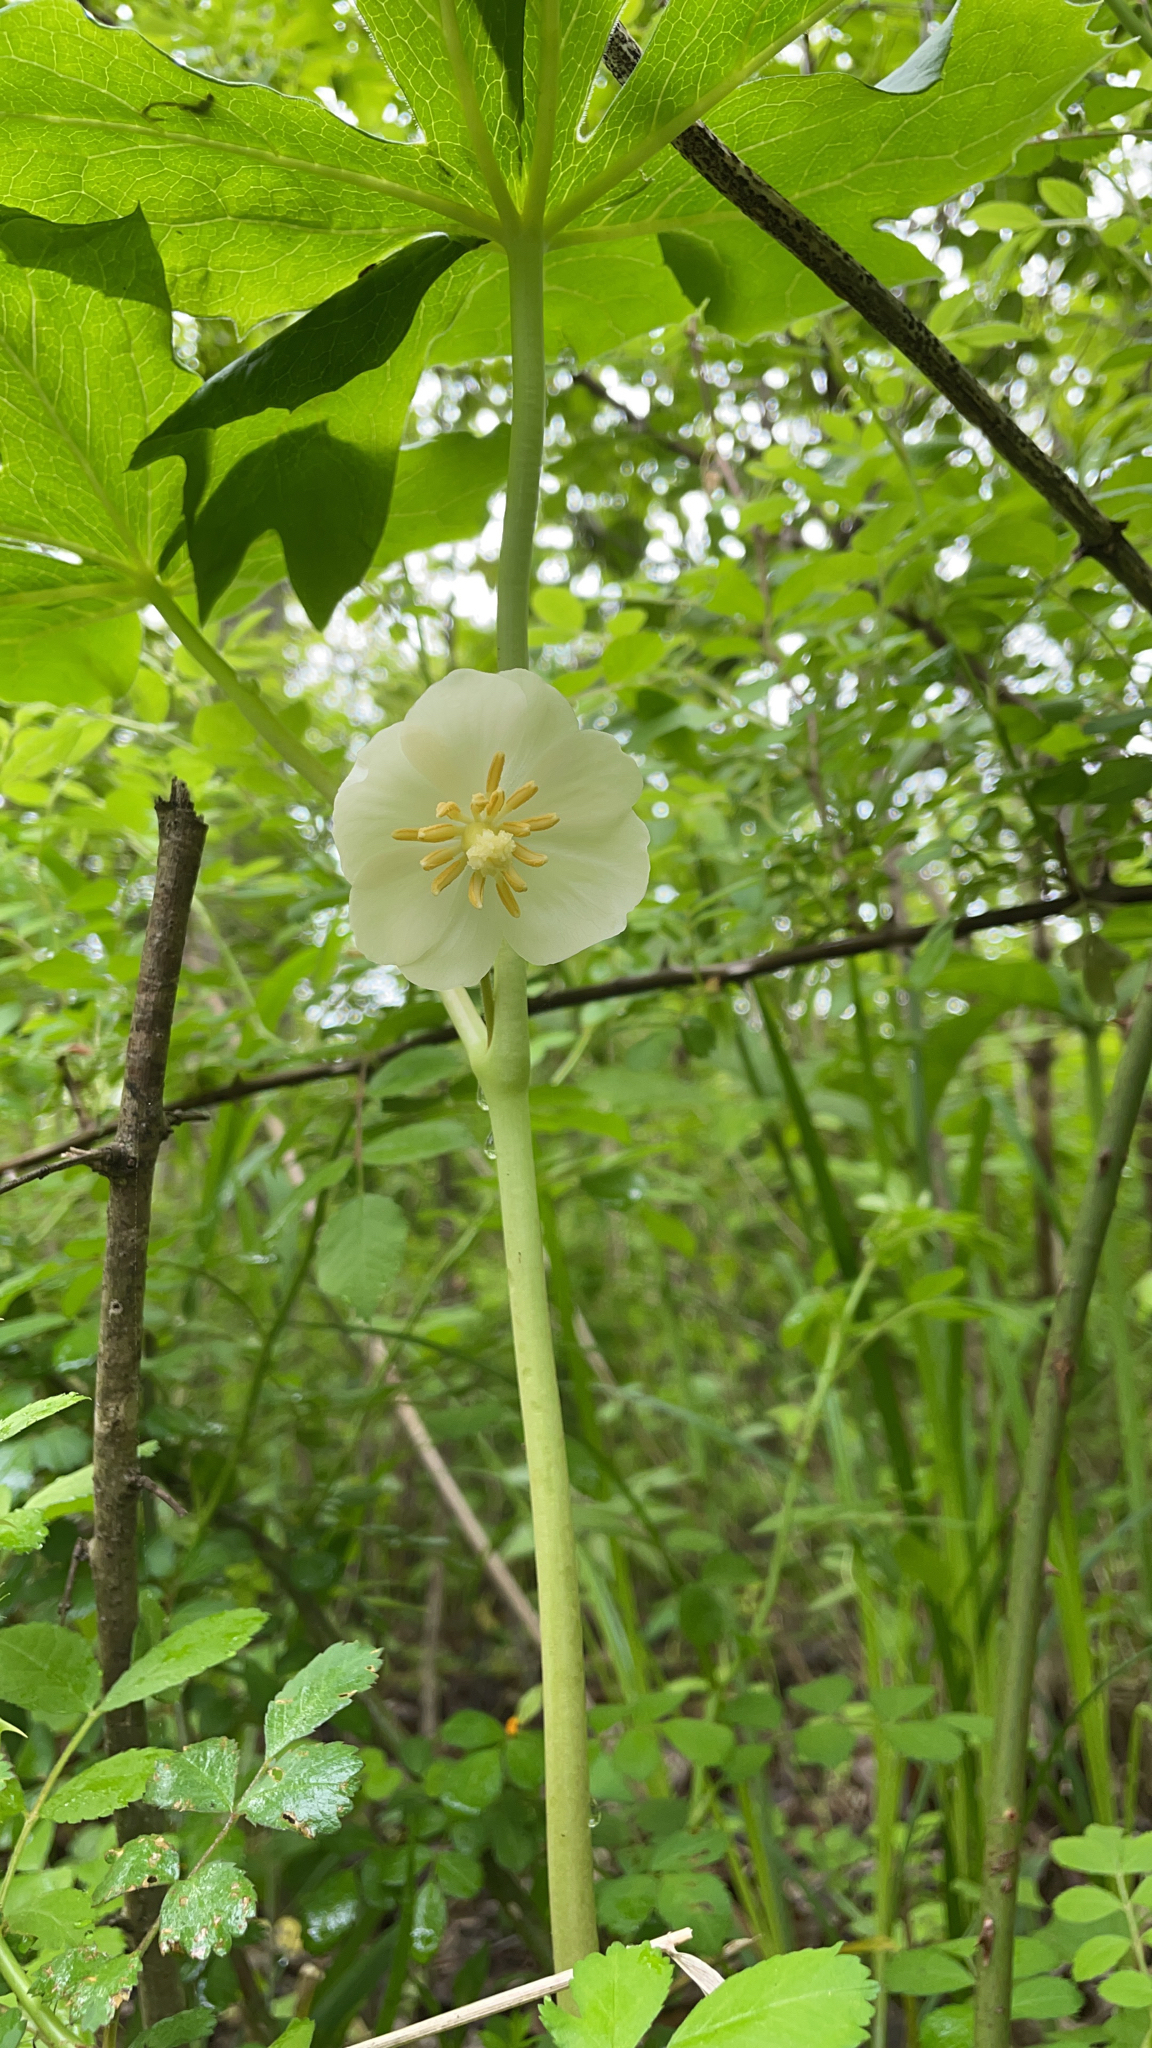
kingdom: Plantae
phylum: Tracheophyta
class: Magnoliopsida
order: Ranunculales
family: Berberidaceae
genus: Podophyllum
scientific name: Podophyllum peltatum
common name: Wild mandrake
